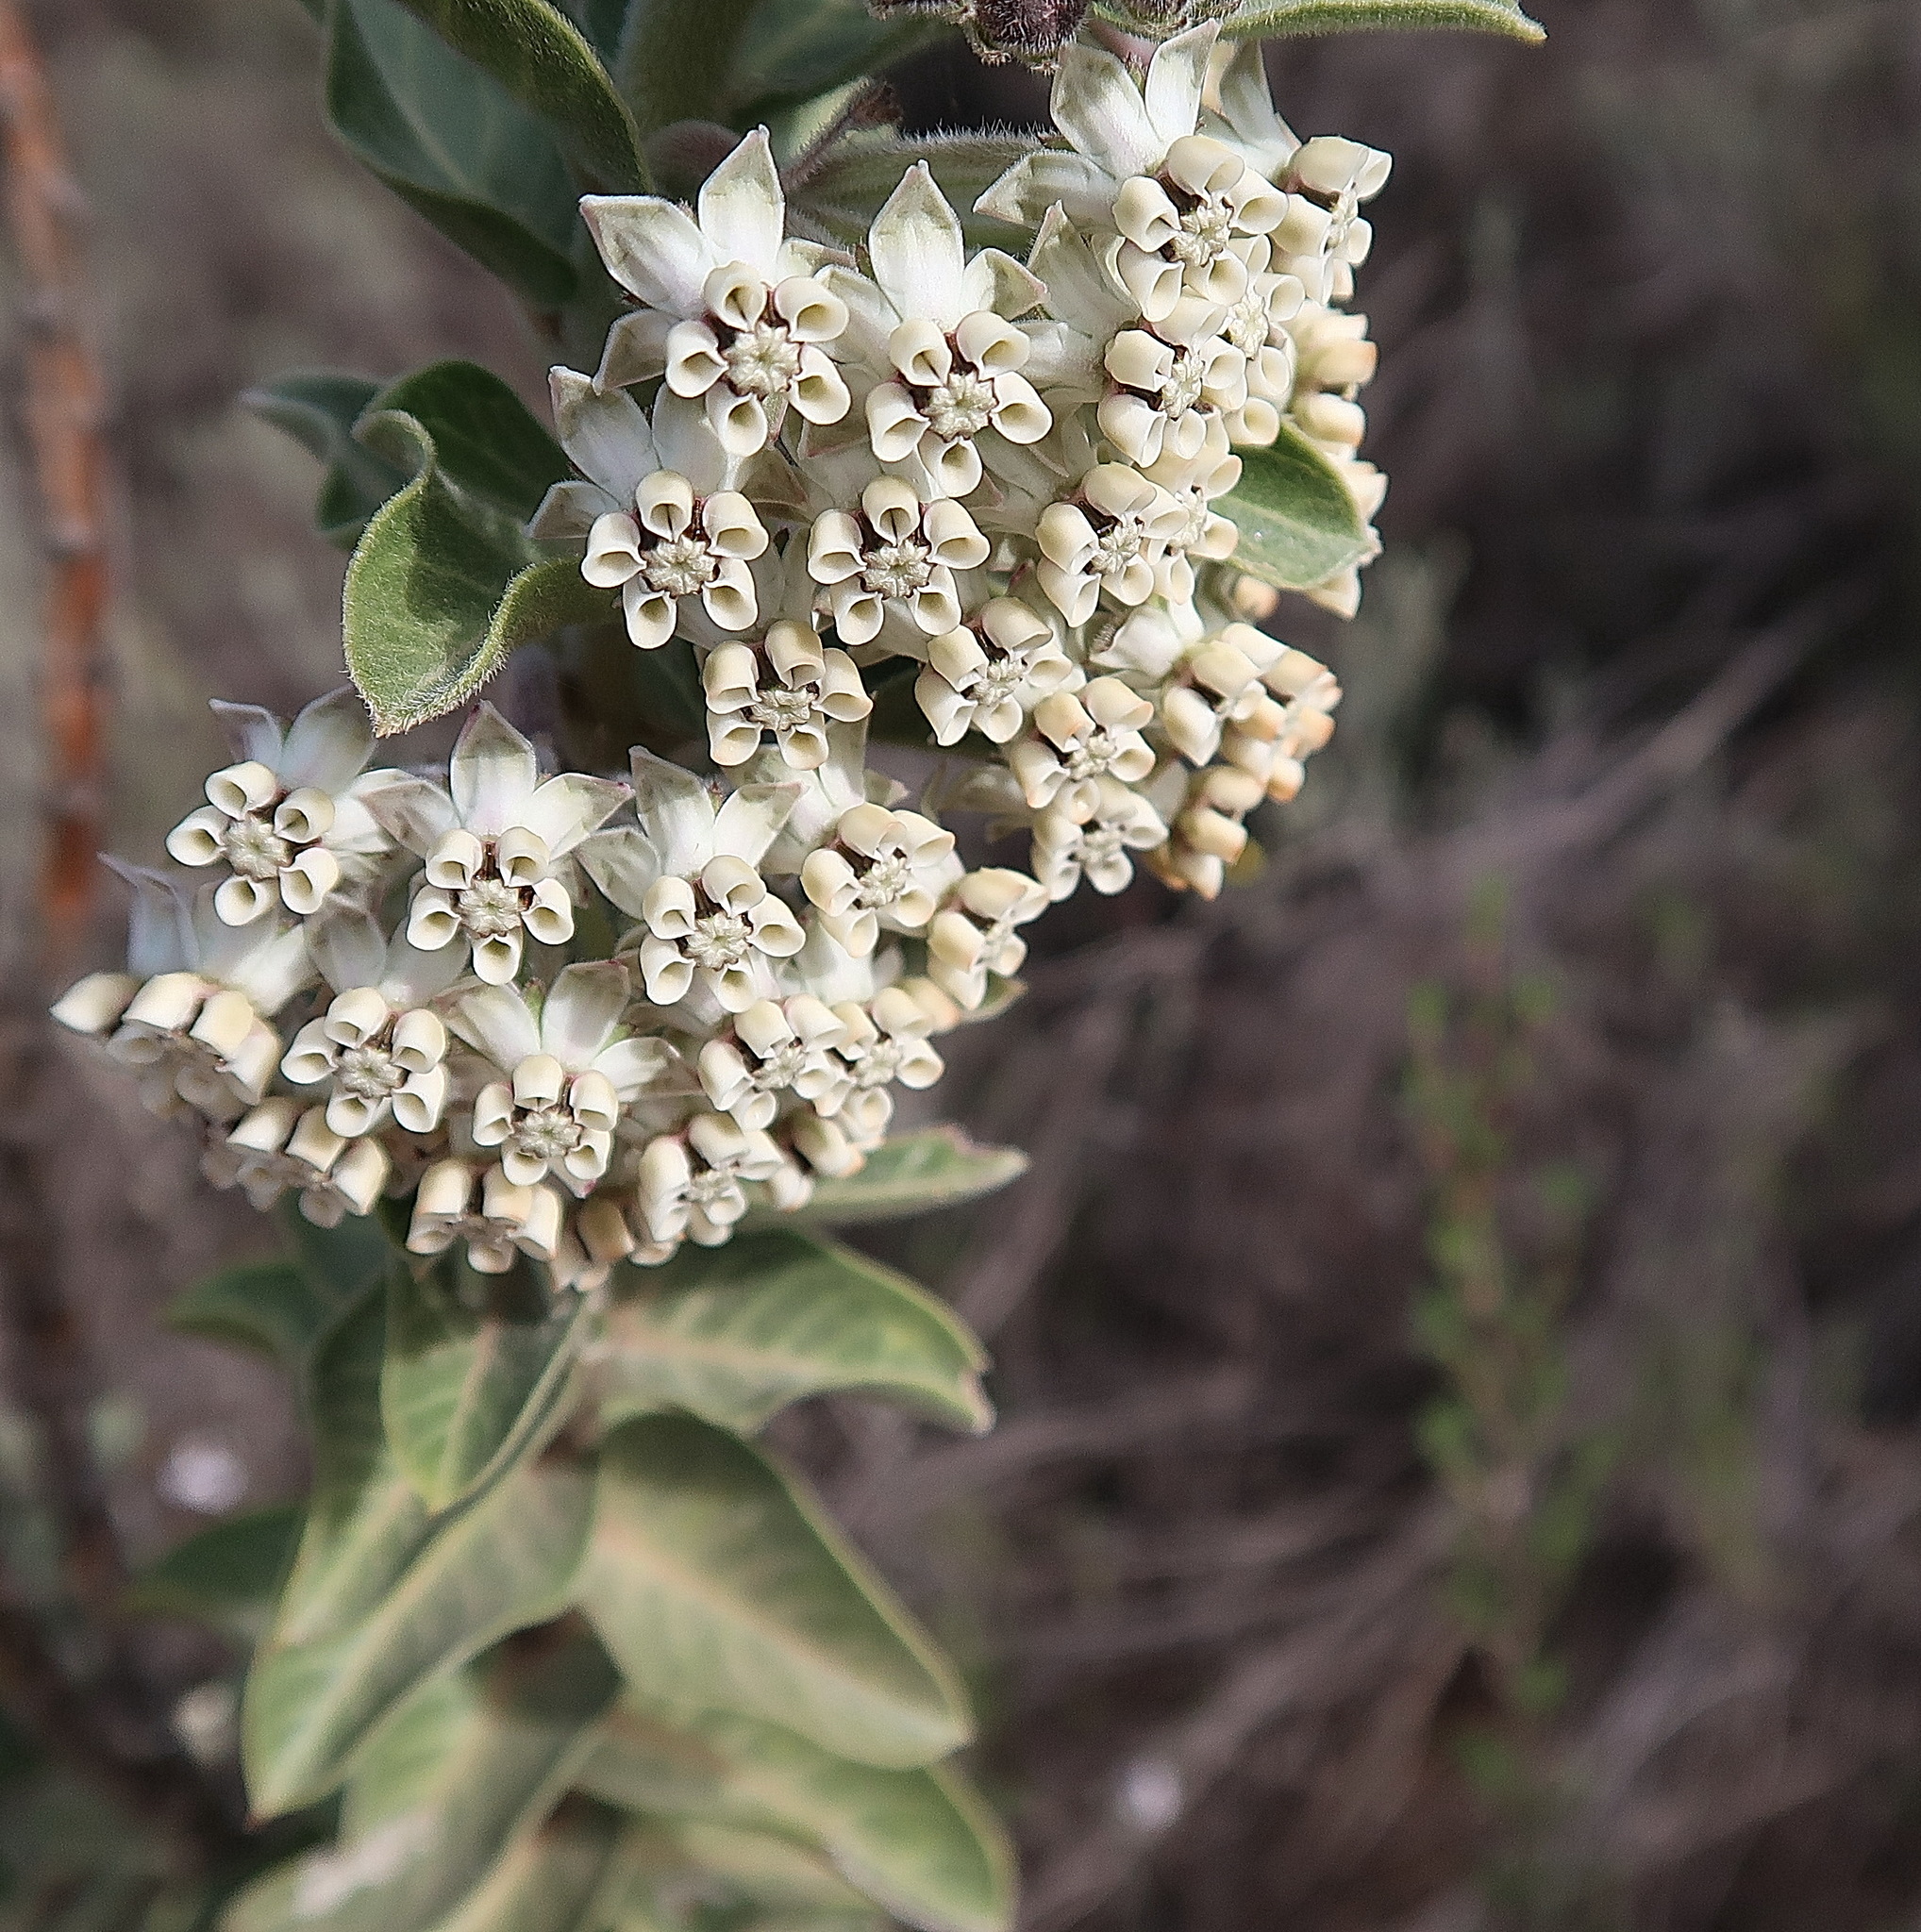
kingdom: Plantae
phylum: Tracheophyta
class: Magnoliopsida
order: Gentianales
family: Apocynaceae
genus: Gomphocarpus
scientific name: Gomphocarpus cancellatus
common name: Wild cotton
